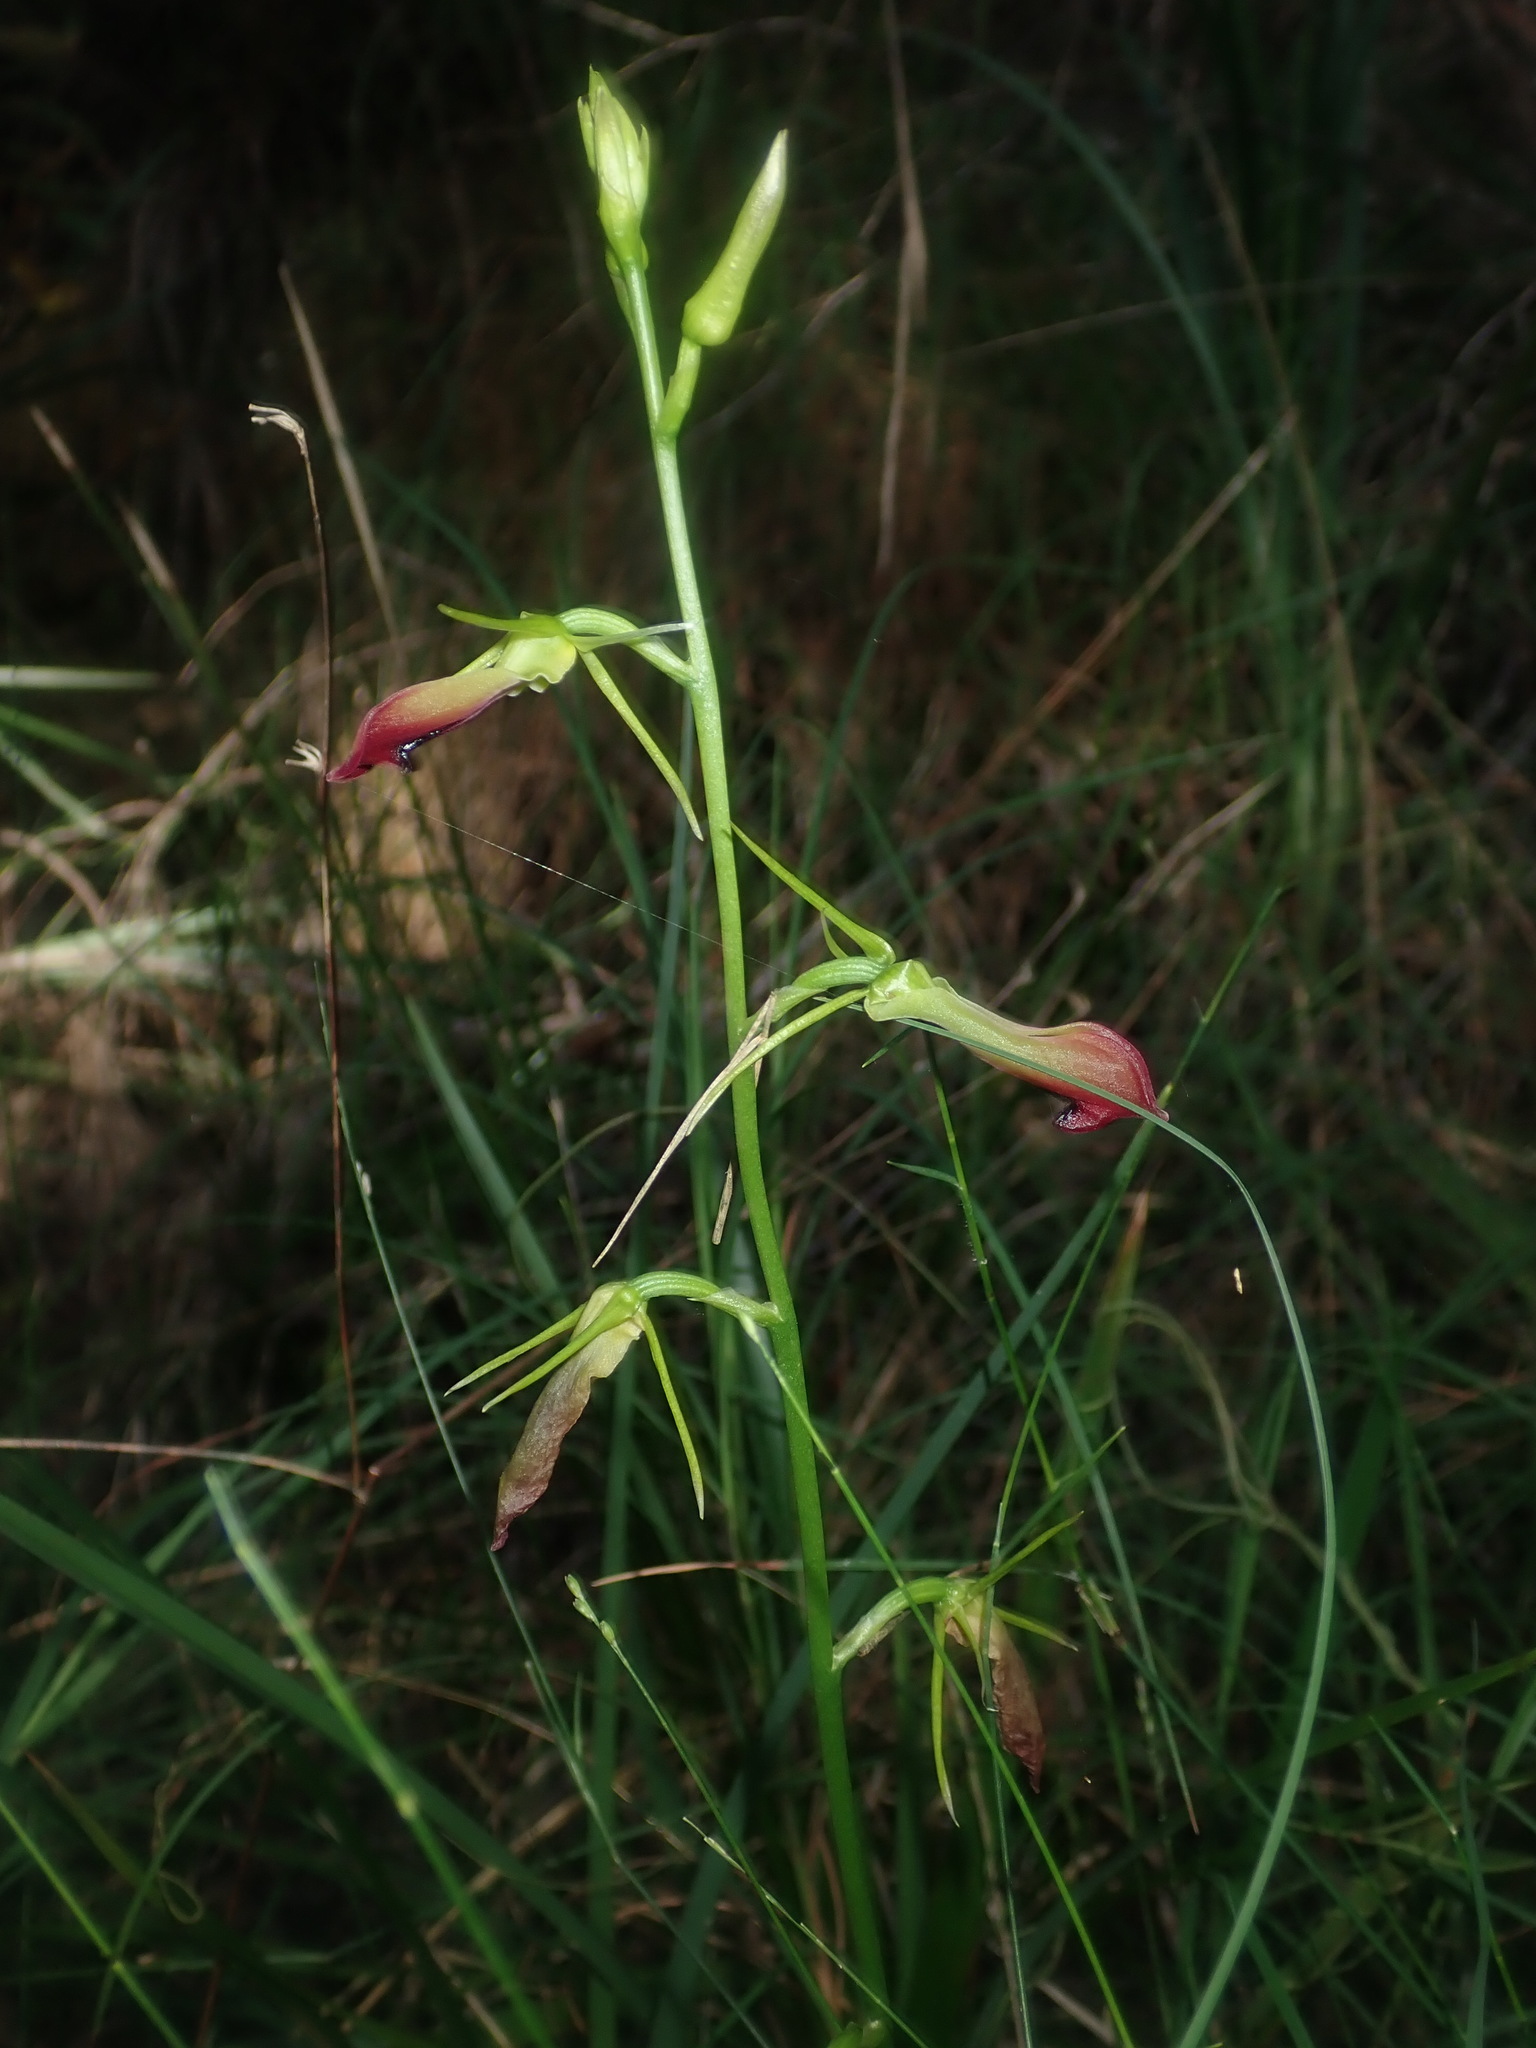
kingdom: Plantae
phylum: Tracheophyta
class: Liliopsida
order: Asparagales
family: Orchidaceae
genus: Cryptostylis
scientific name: Cryptostylis subulata
